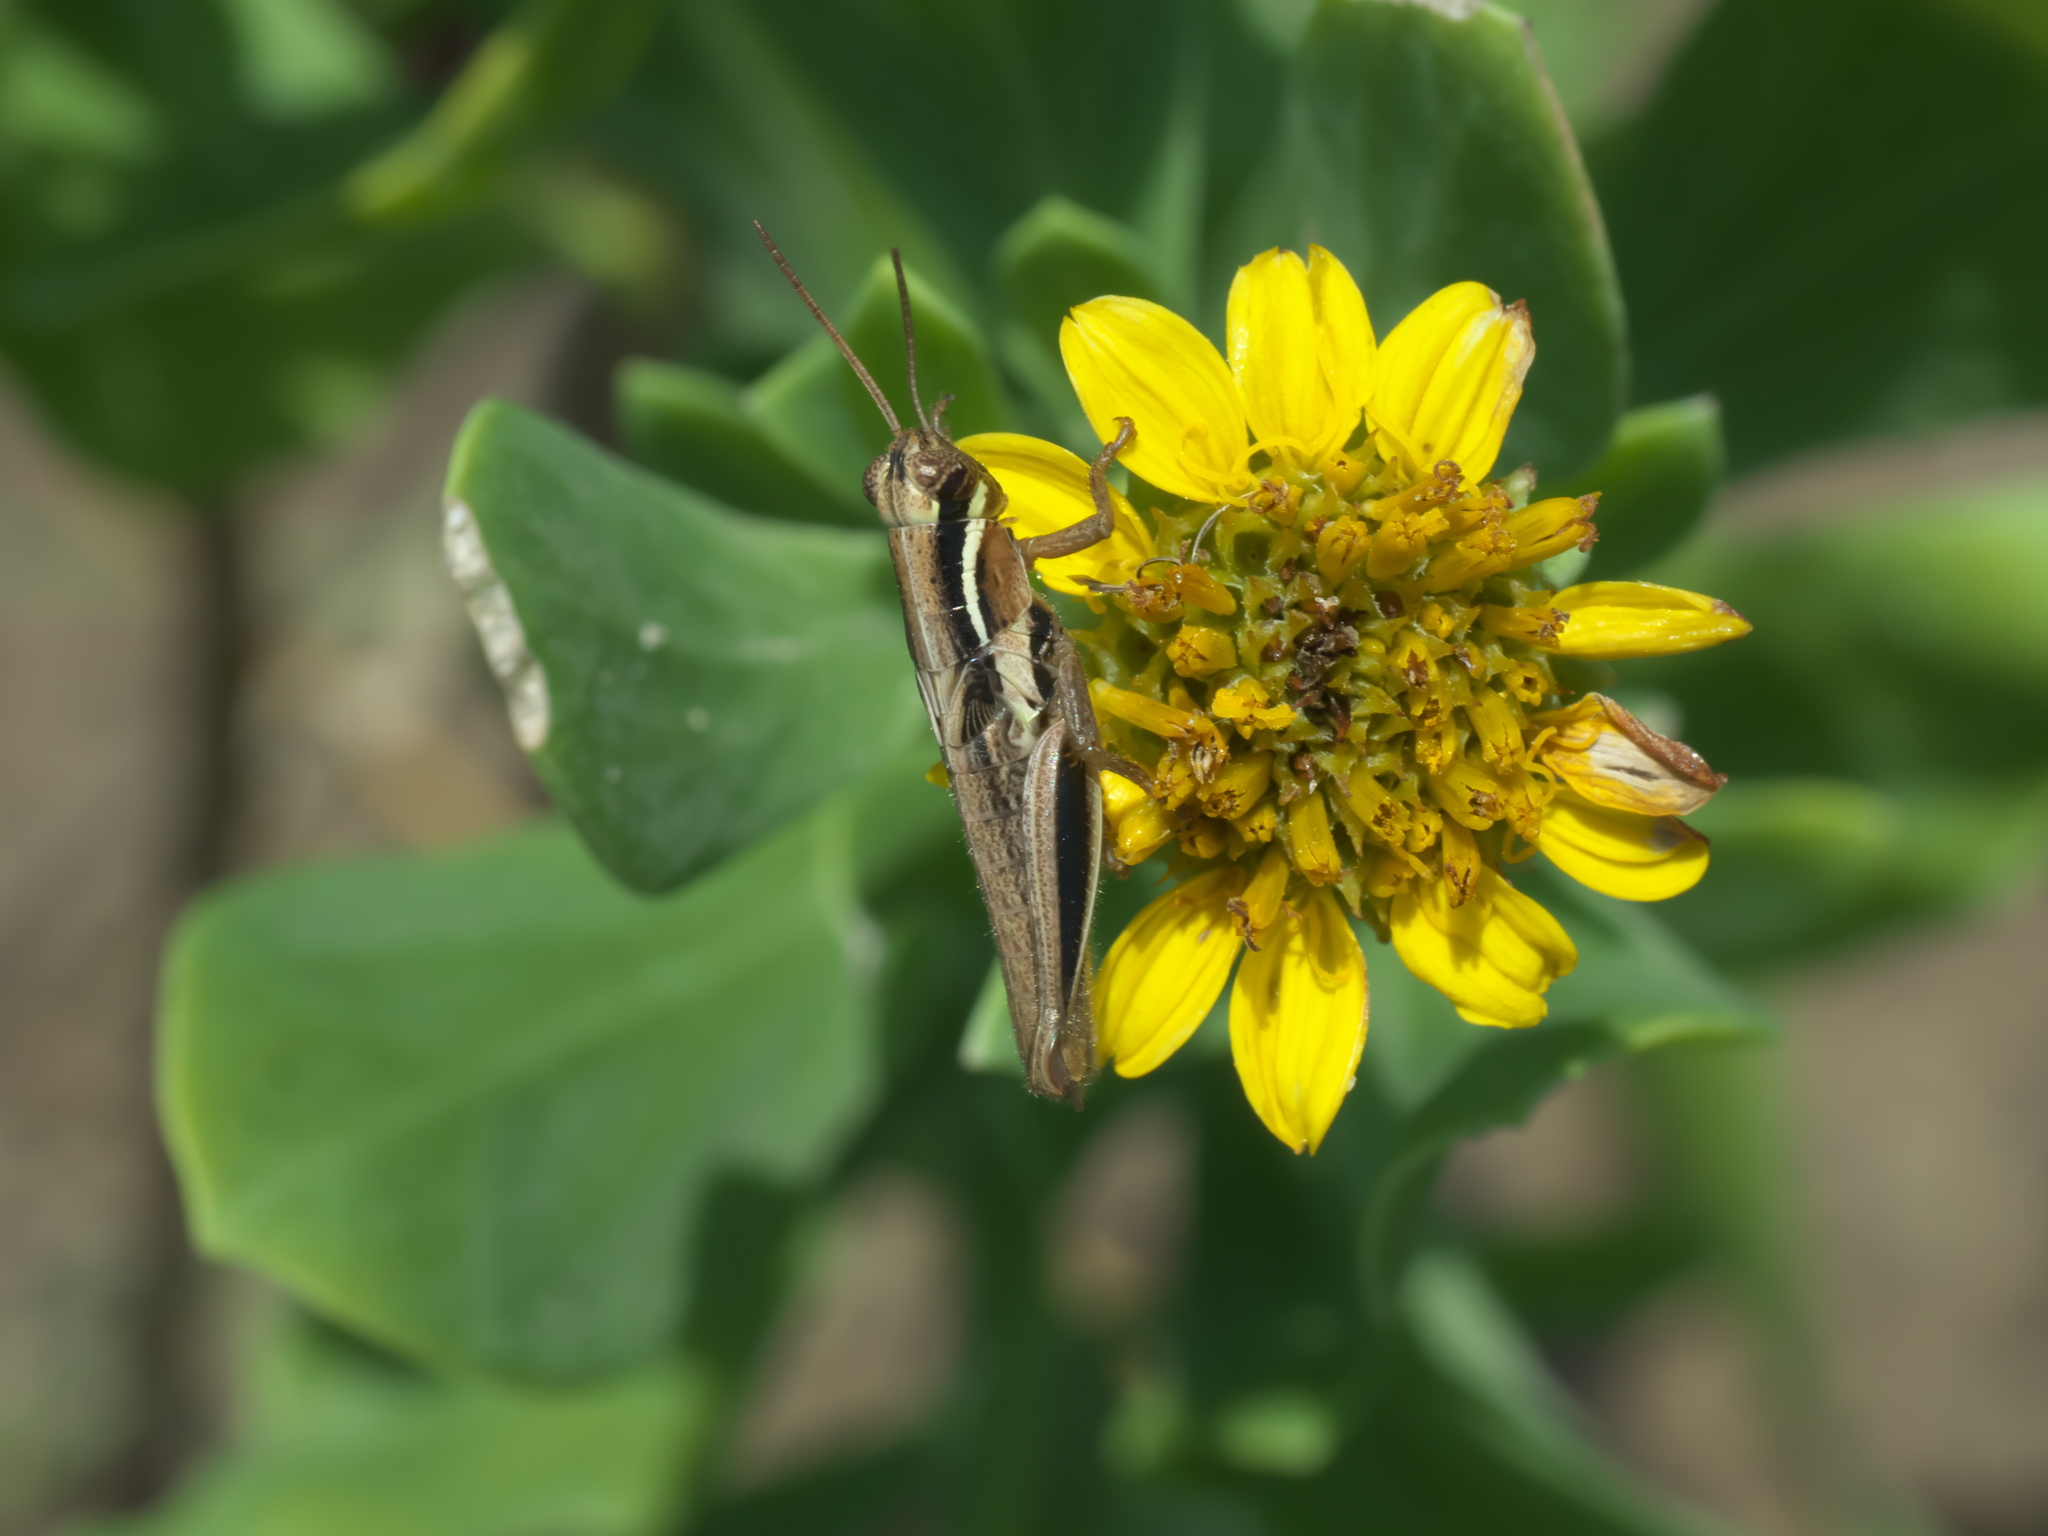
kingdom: Plantae
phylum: Tracheophyta
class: Magnoliopsida
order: Asterales
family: Asteraceae
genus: Borrichia
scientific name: Borrichia frutescens
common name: Sea oxeye
